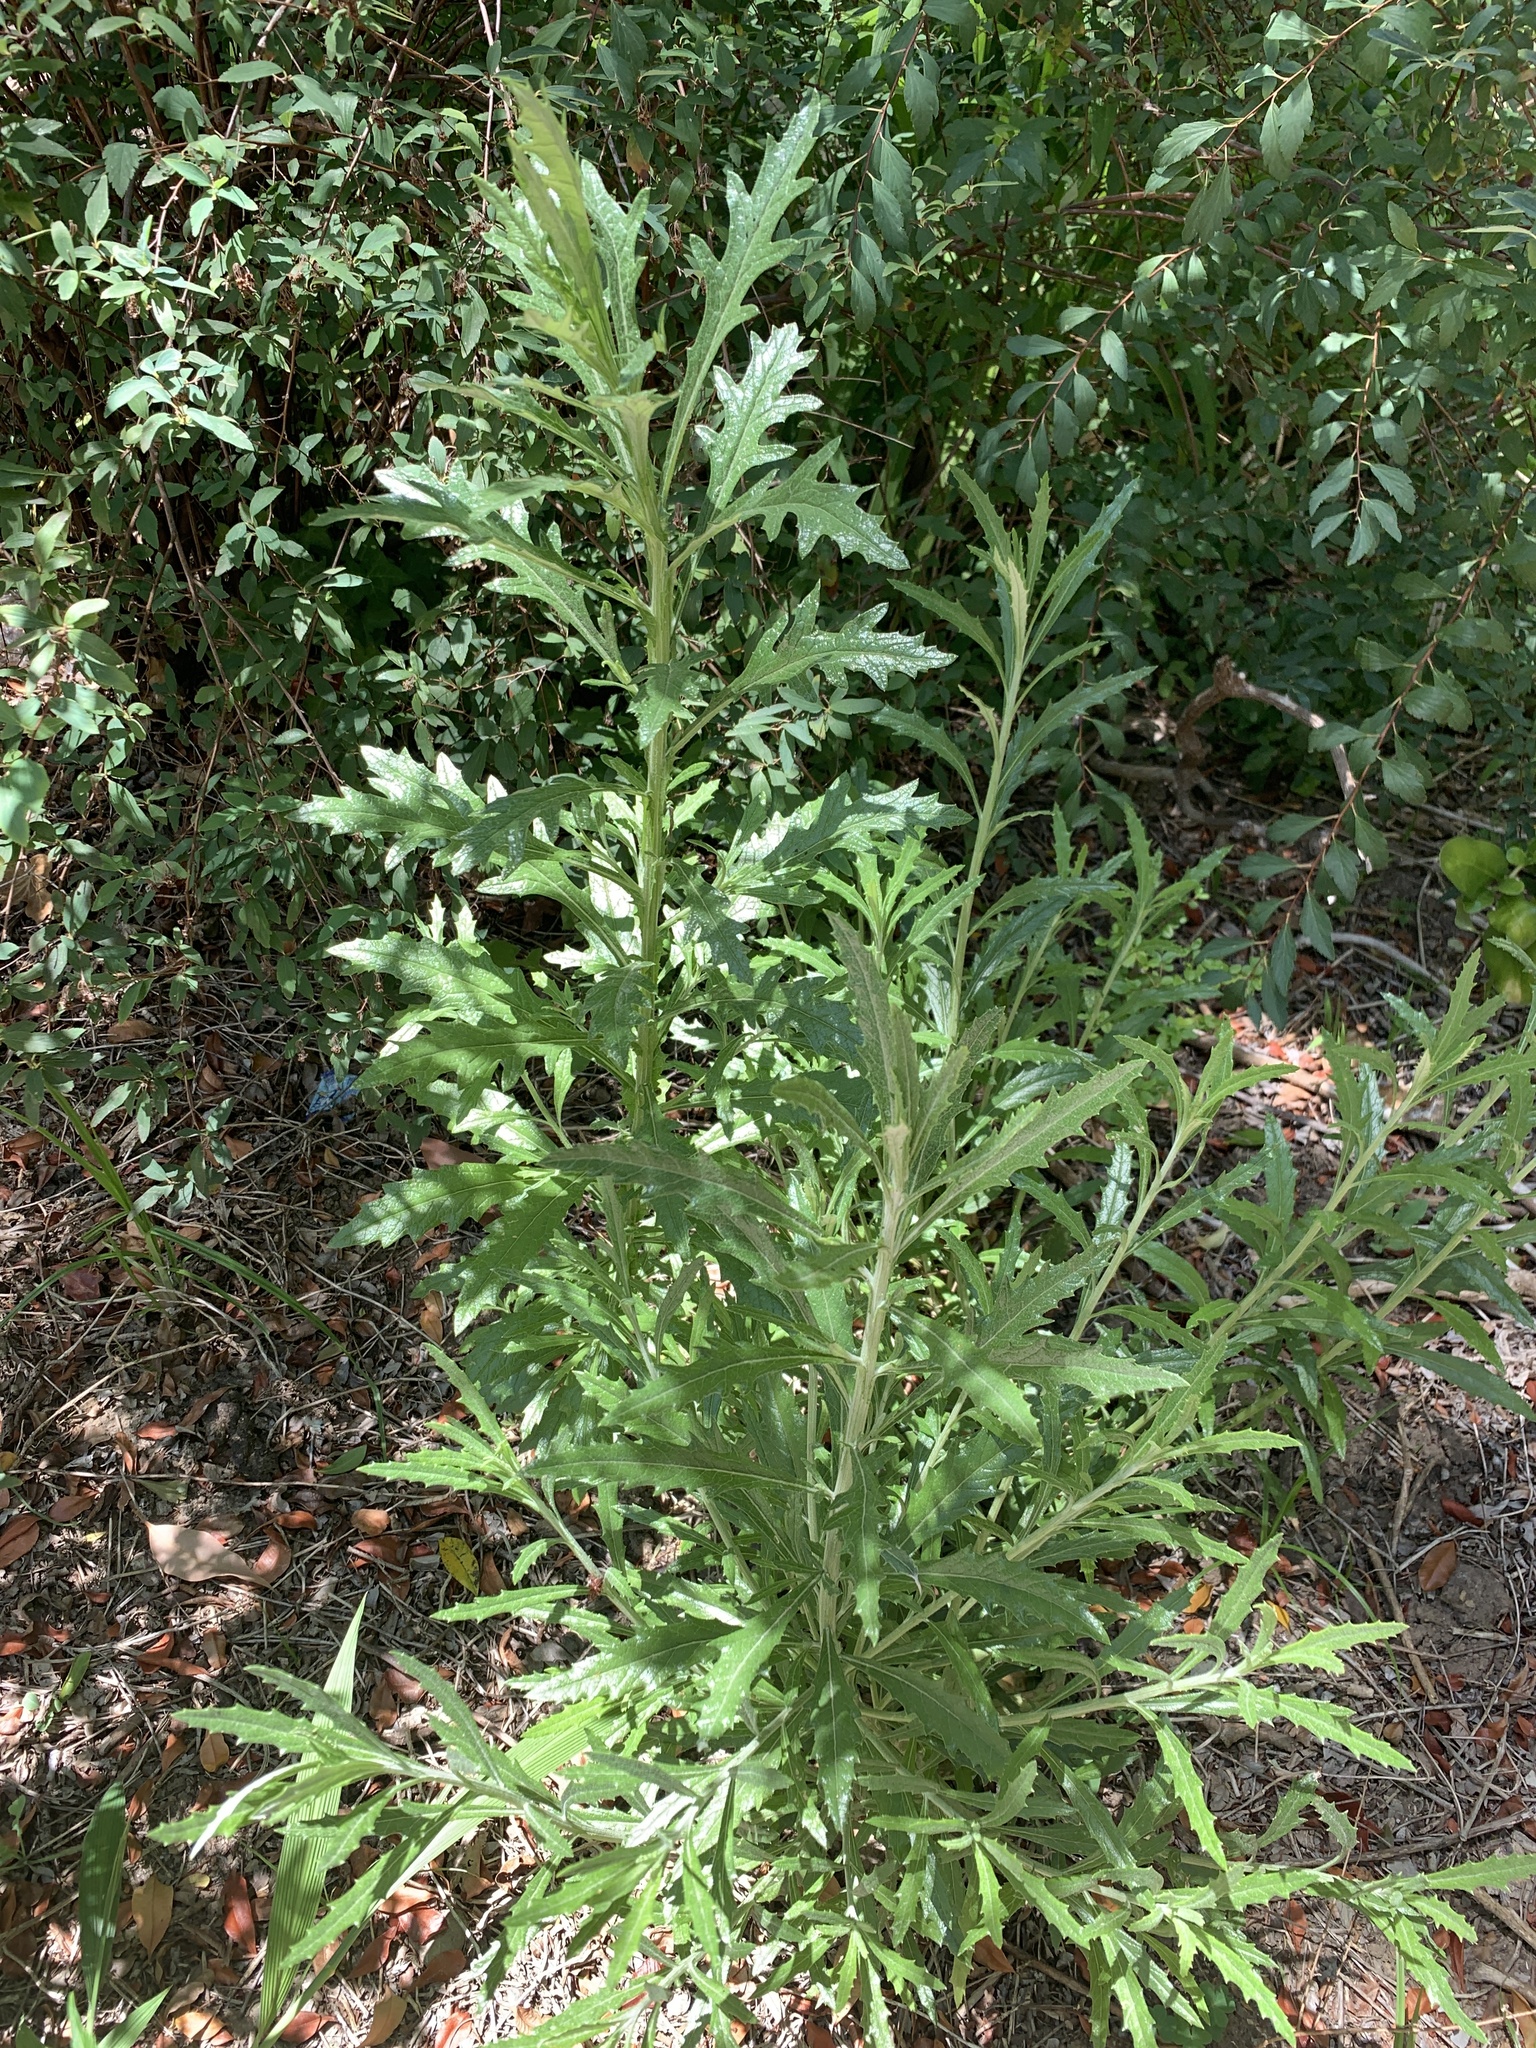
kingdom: Plantae
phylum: Tracheophyta
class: Magnoliopsida
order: Asterales
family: Asteraceae
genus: Senecio
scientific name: Senecio pterophorus
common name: Shoddy ragwort
